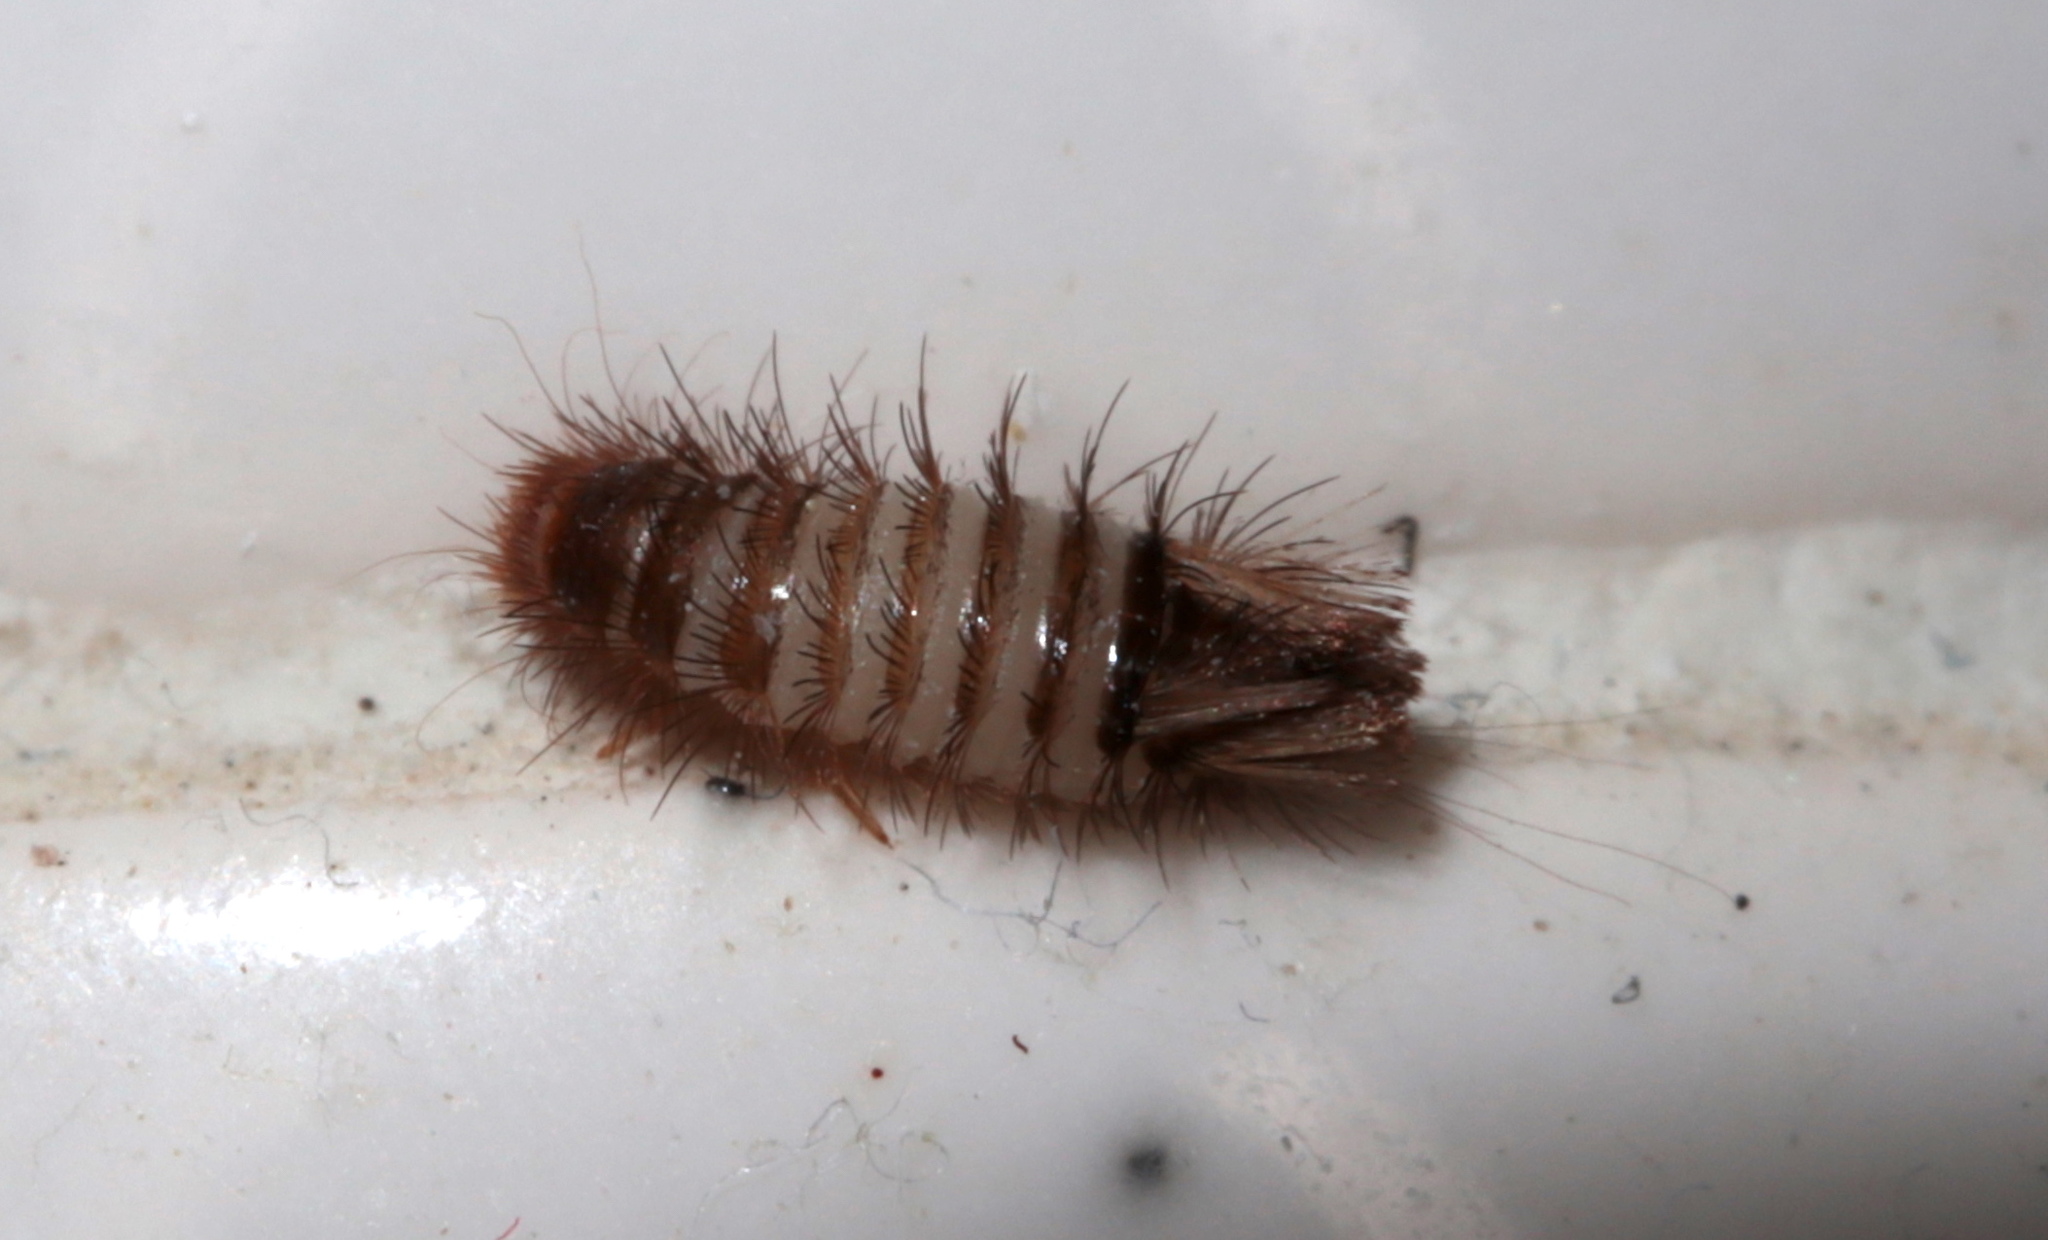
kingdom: Animalia
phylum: Arthropoda
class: Insecta
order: Coleoptera
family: Dermestidae
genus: Anthrenus
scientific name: Anthrenus verbasci
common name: Varied carpet beetle
